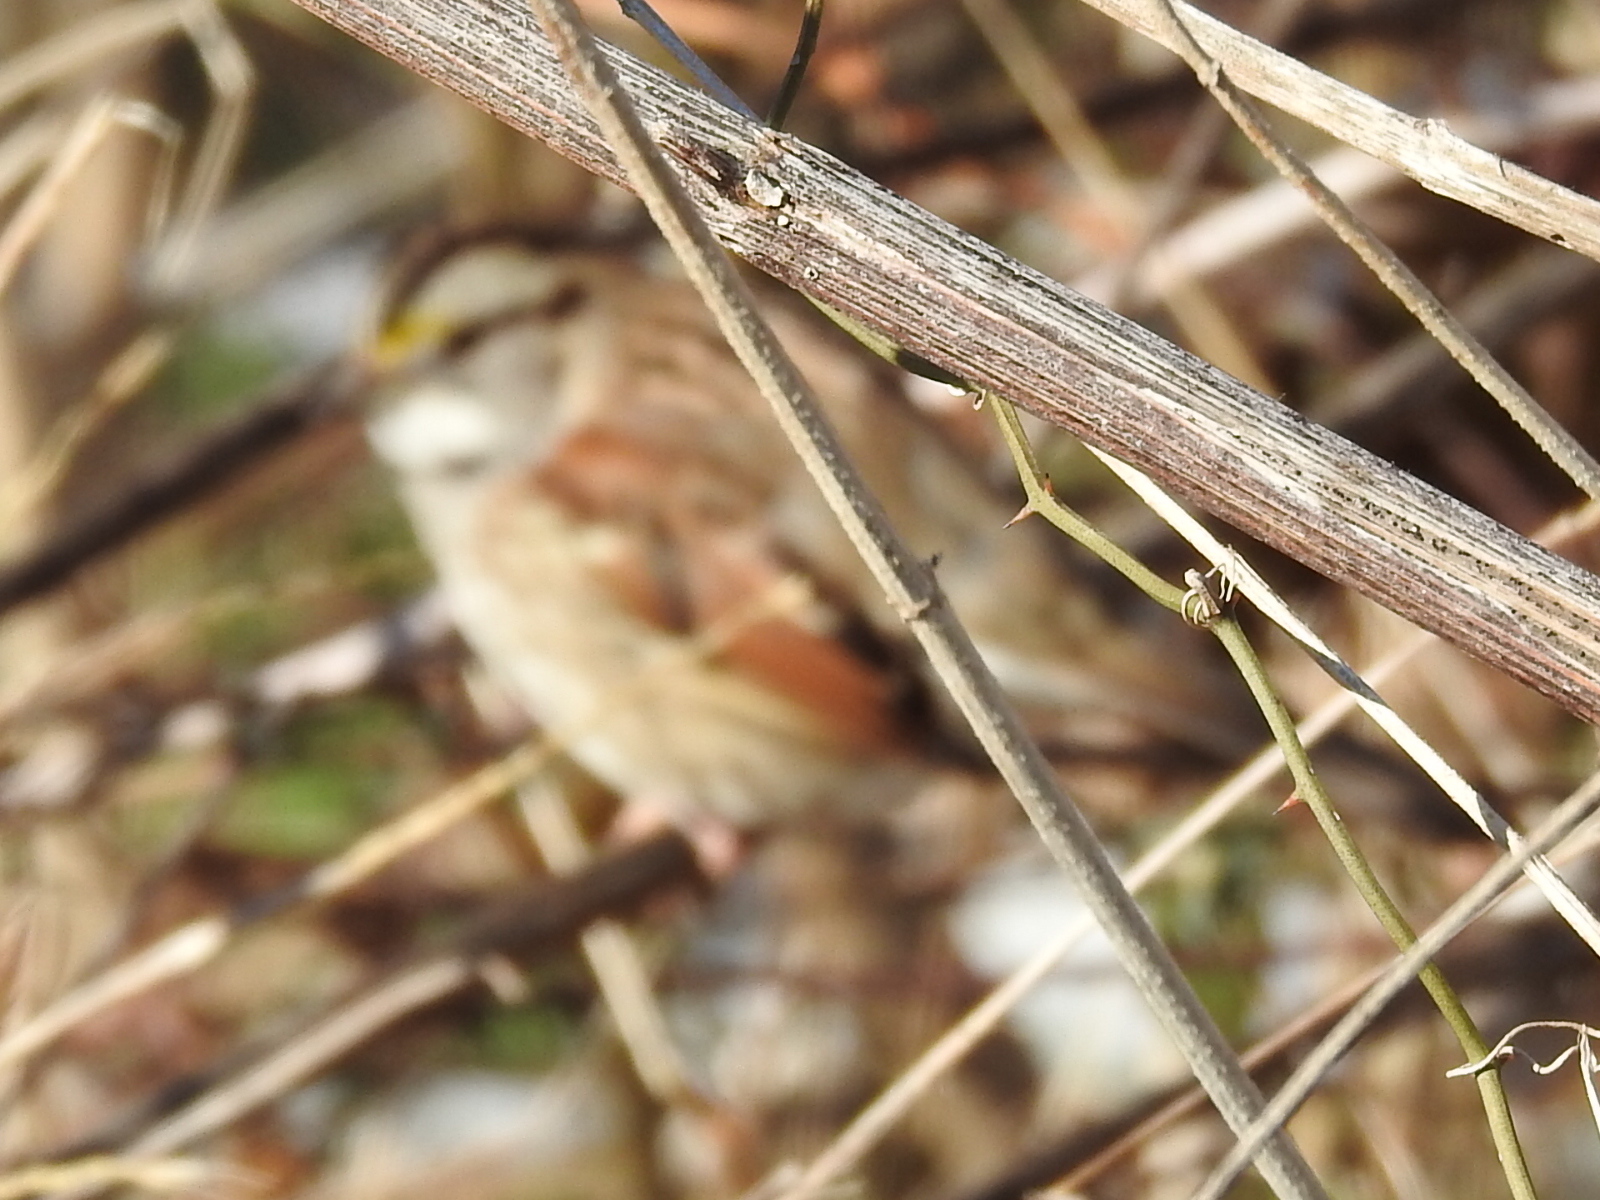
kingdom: Animalia
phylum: Chordata
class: Aves
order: Passeriformes
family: Passerellidae
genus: Zonotrichia
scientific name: Zonotrichia albicollis
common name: White-throated sparrow
